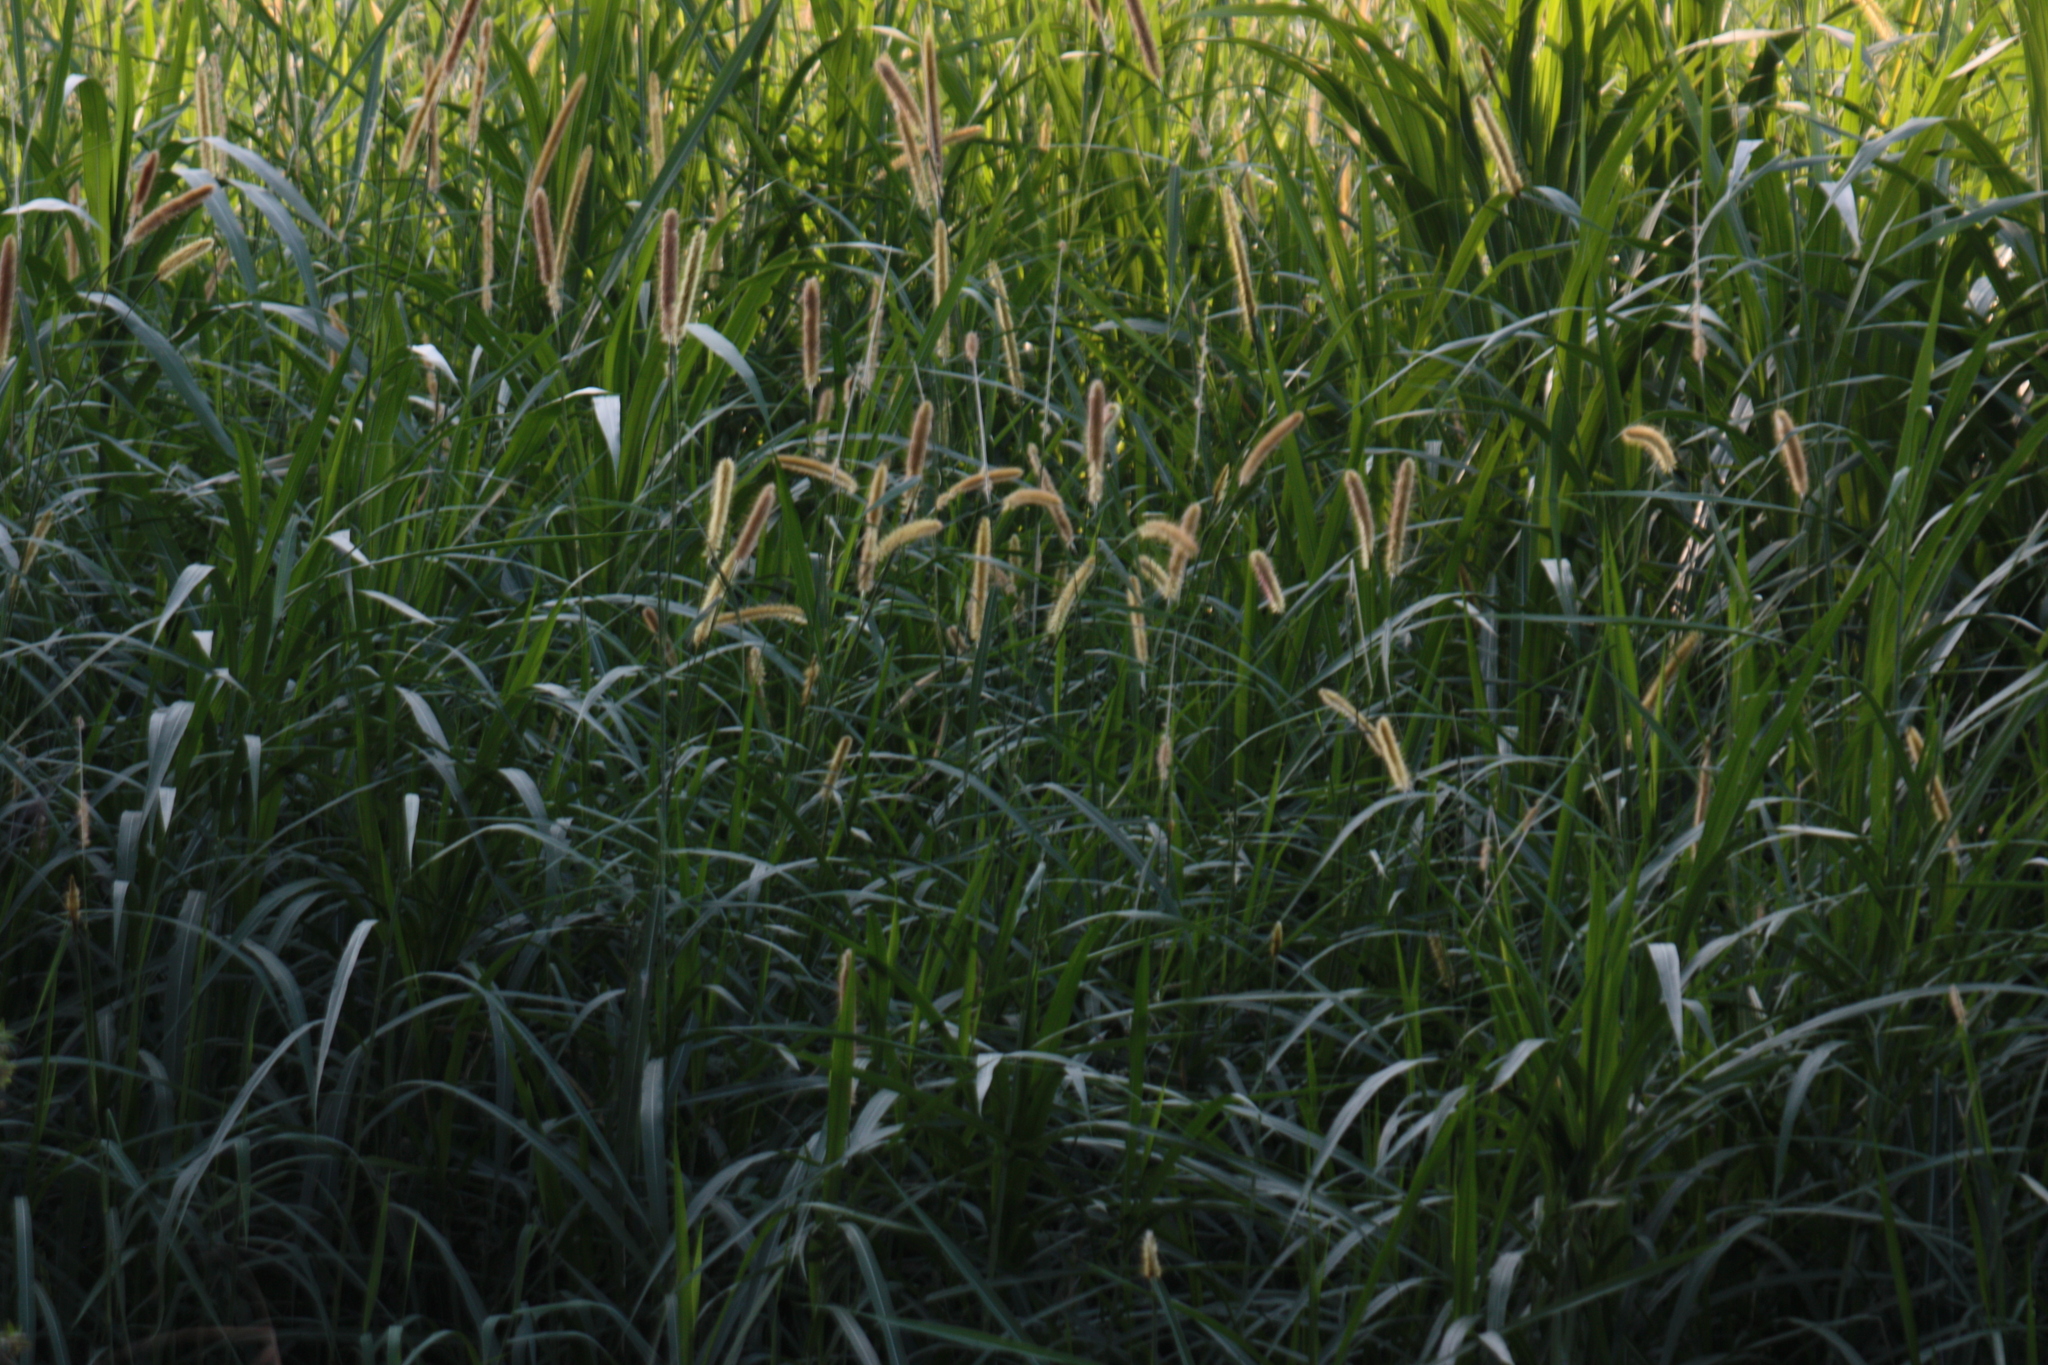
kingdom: Plantae
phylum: Tracheophyta
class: Liliopsida
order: Poales
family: Poaceae
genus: Cenchrus
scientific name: Cenchrus purpureus
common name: Elephant grass
